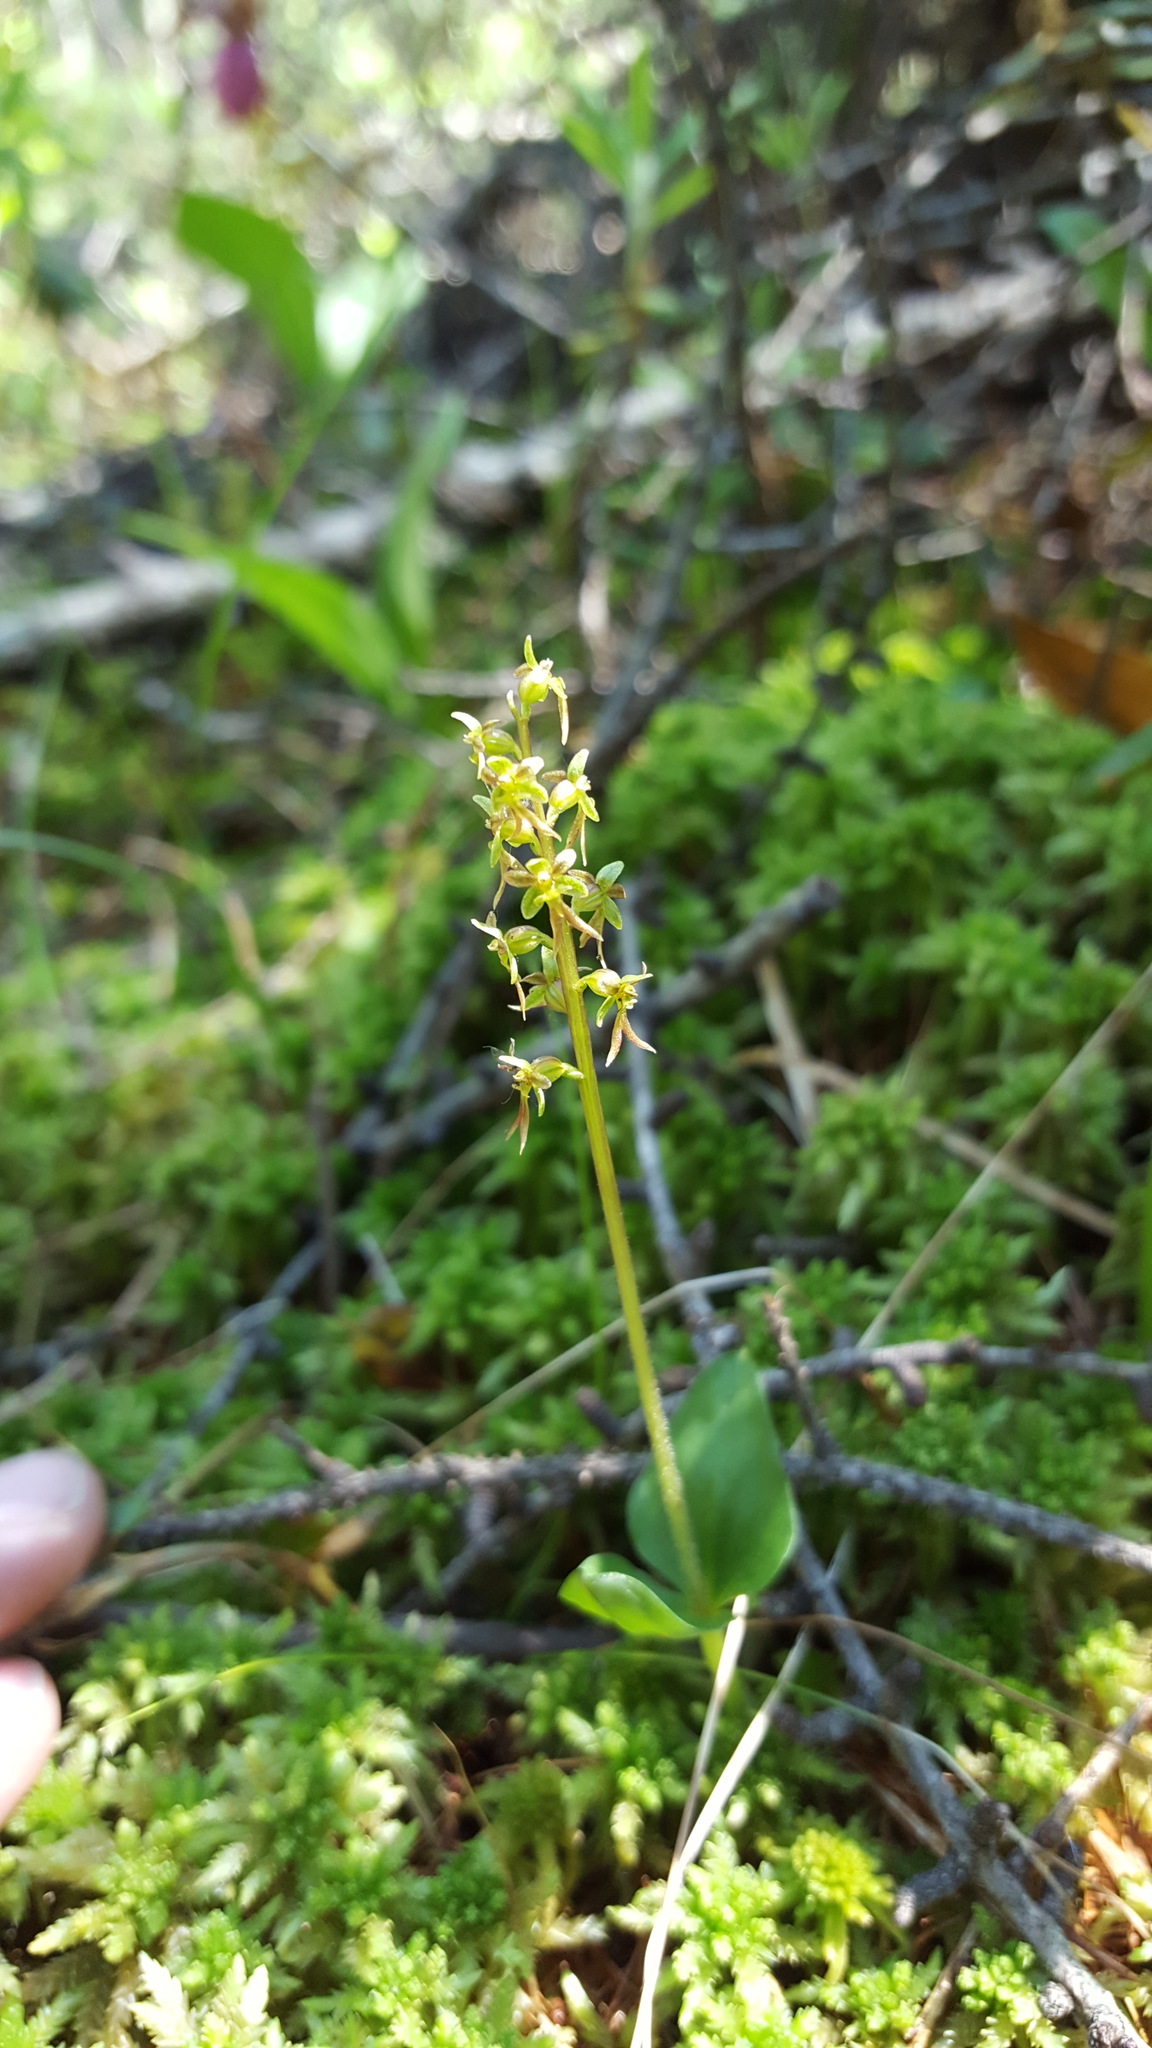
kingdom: Plantae
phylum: Tracheophyta
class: Liliopsida
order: Asparagales
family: Orchidaceae
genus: Neottia
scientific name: Neottia cordata
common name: Lesser twayblade
